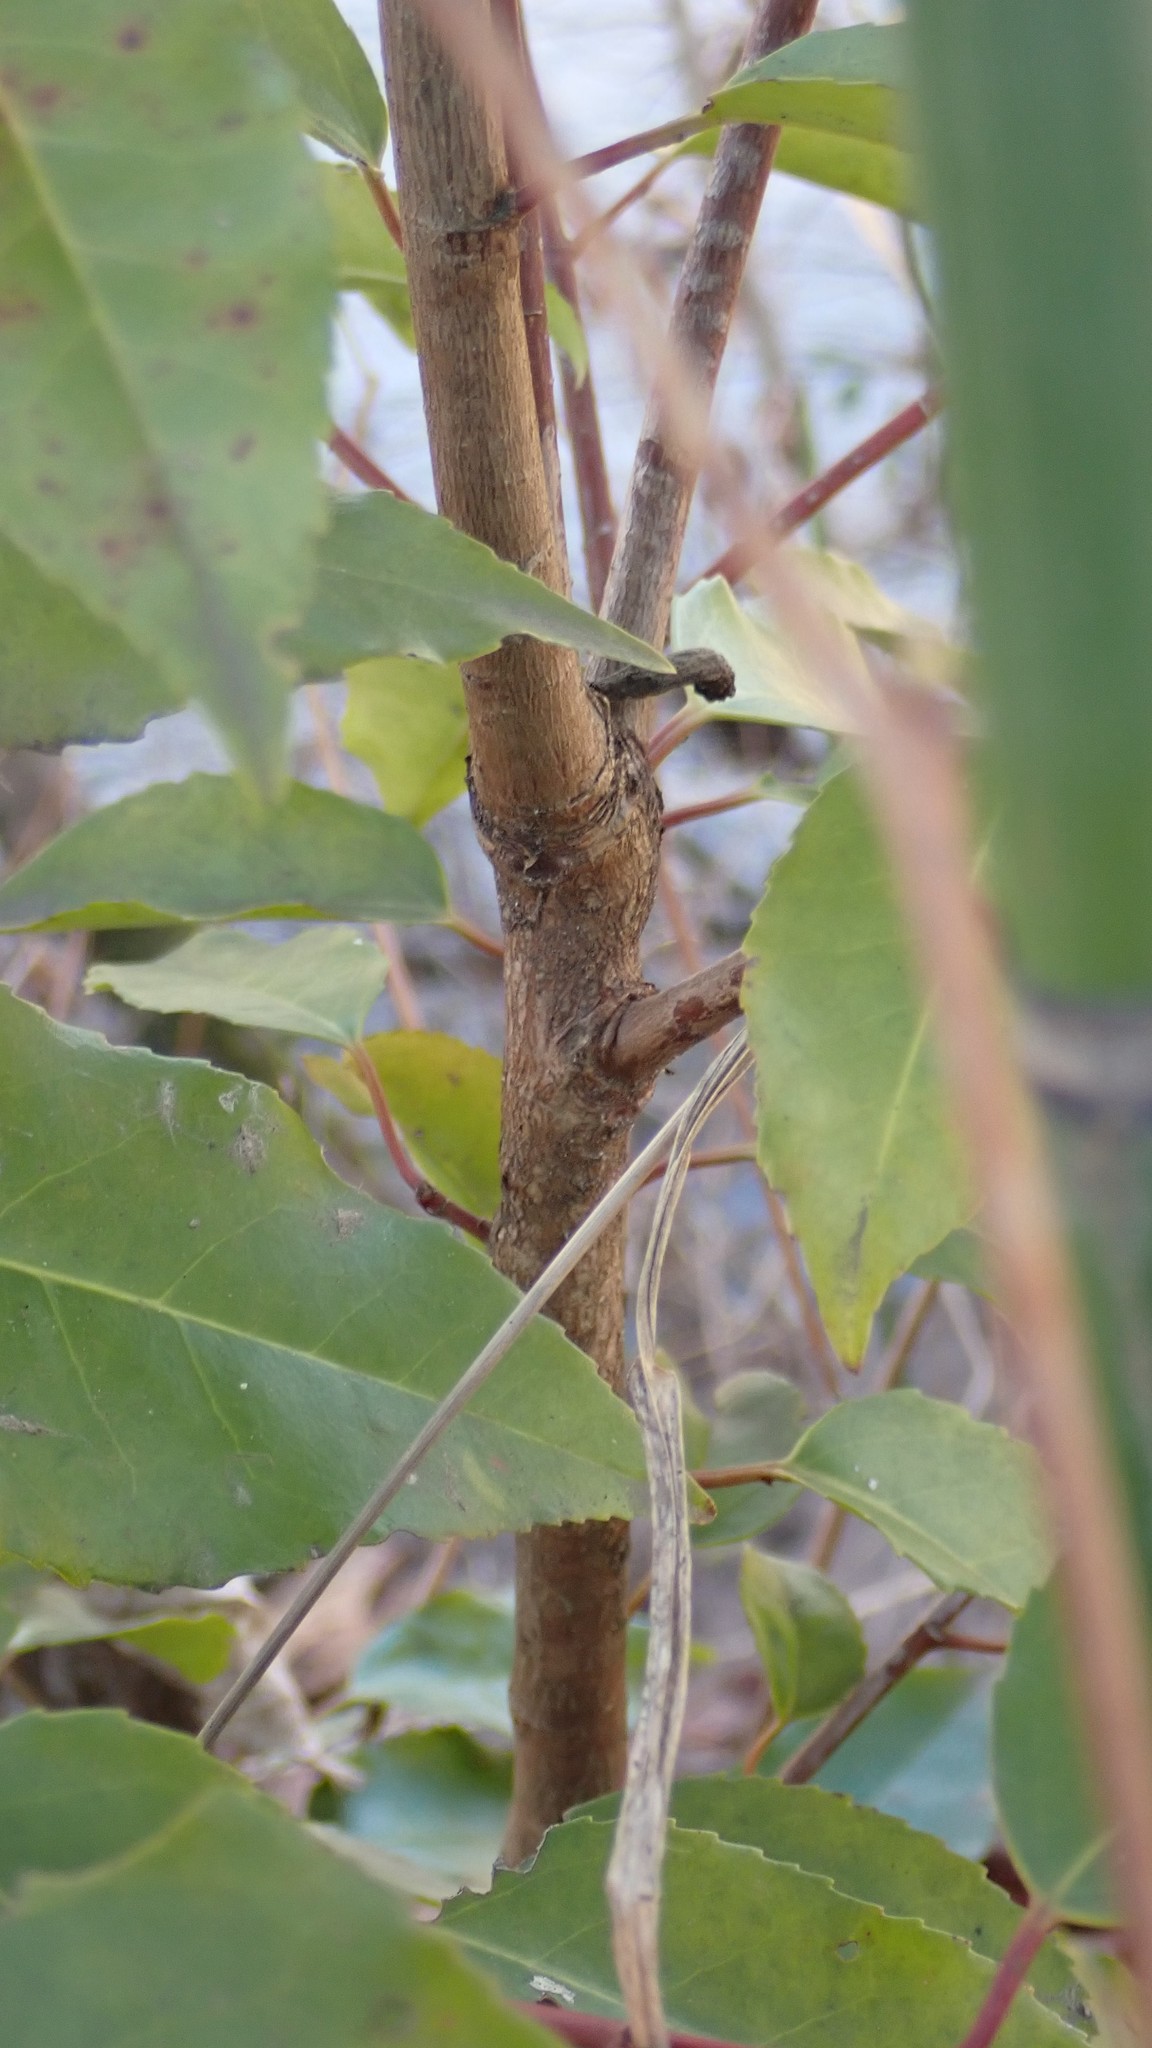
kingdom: Plantae
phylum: Tracheophyta
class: Magnoliopsida
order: Rosales
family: Rosaceae
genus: Prunus
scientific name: Prunus lusitanica
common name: Portugal laurel
